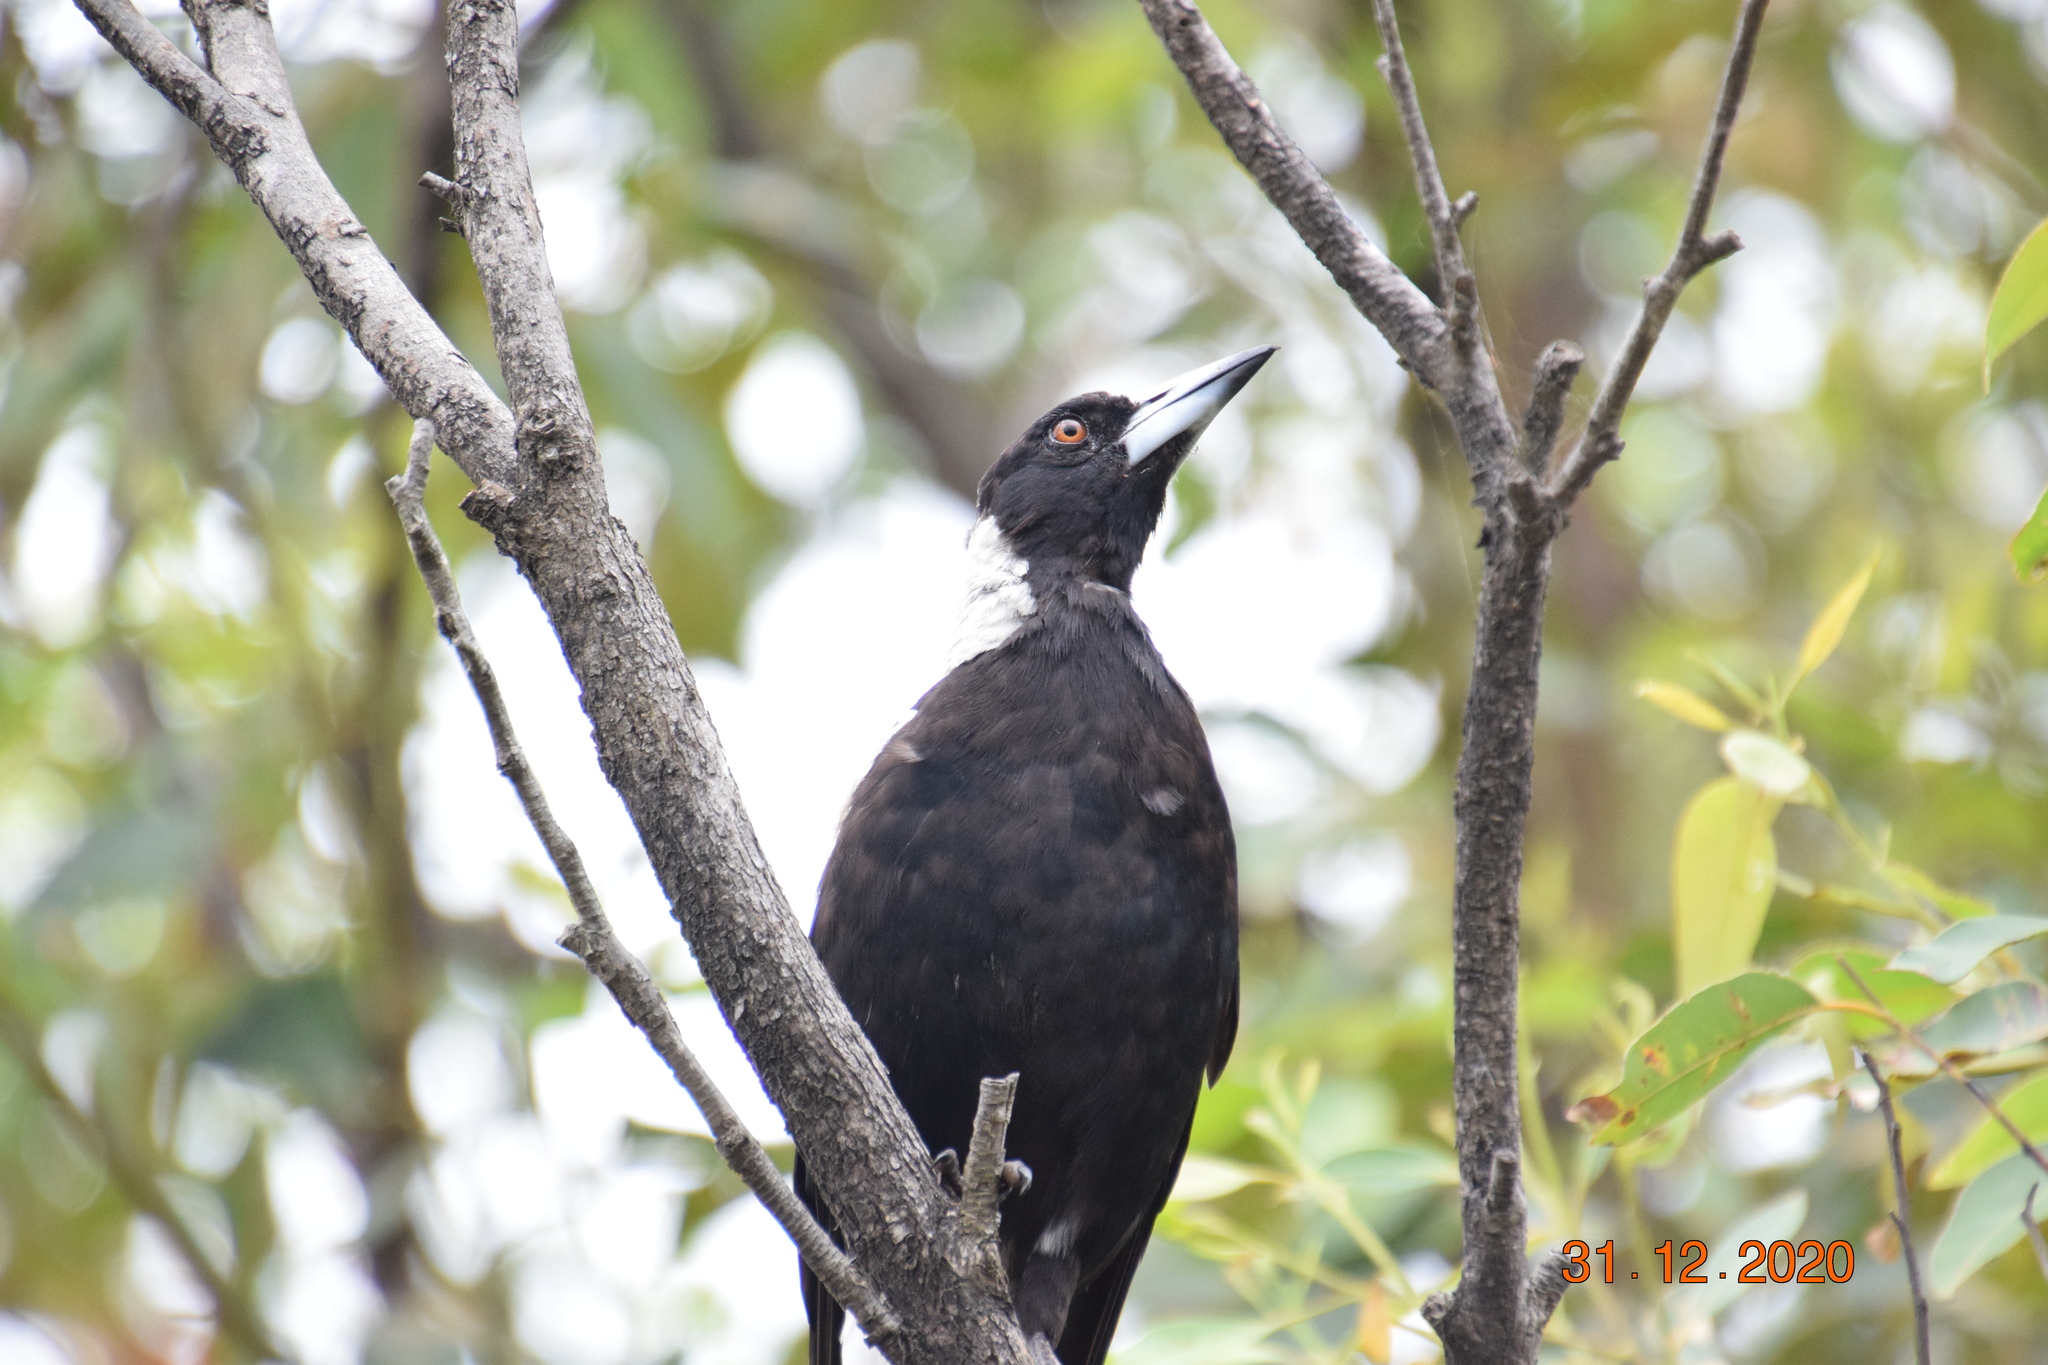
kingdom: Animalia
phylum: Chordata
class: Aves
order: Passeriformes
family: Cracticidae
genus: Gymnorhina
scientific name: Gymnorhina tibicen
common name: Australian magpie
